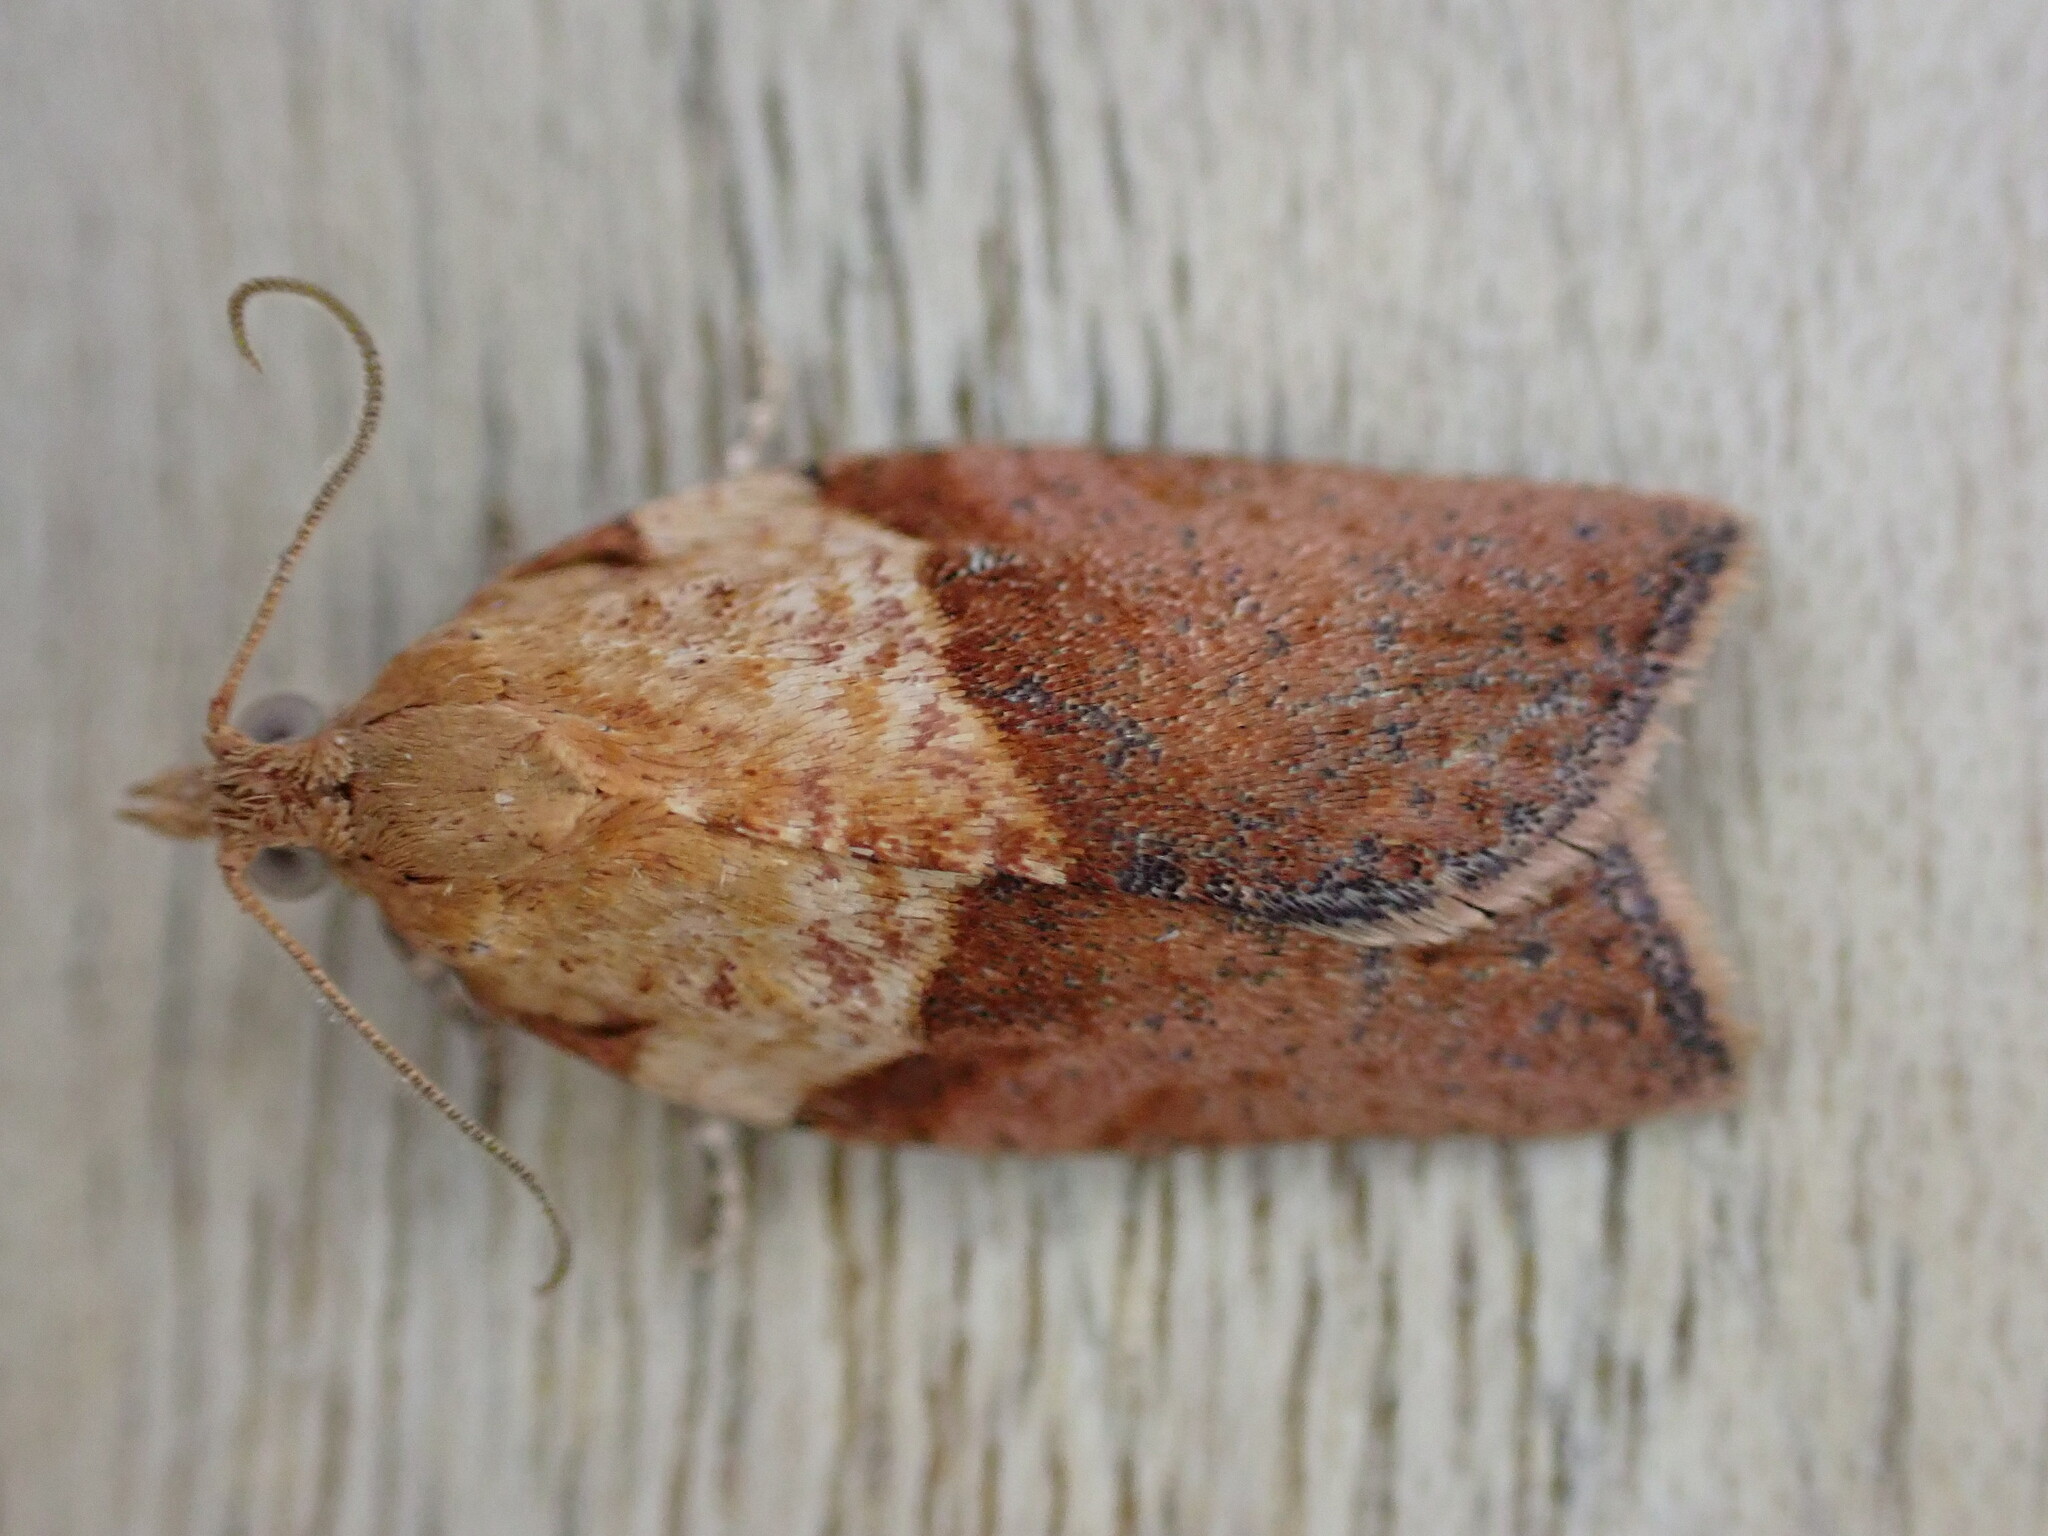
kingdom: Animalia
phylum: Arthropoda
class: Insecta
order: Lepidoptera
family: Tortricidae
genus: Epiphyas
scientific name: Epiphyas postvittana
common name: Light brown apple moth
